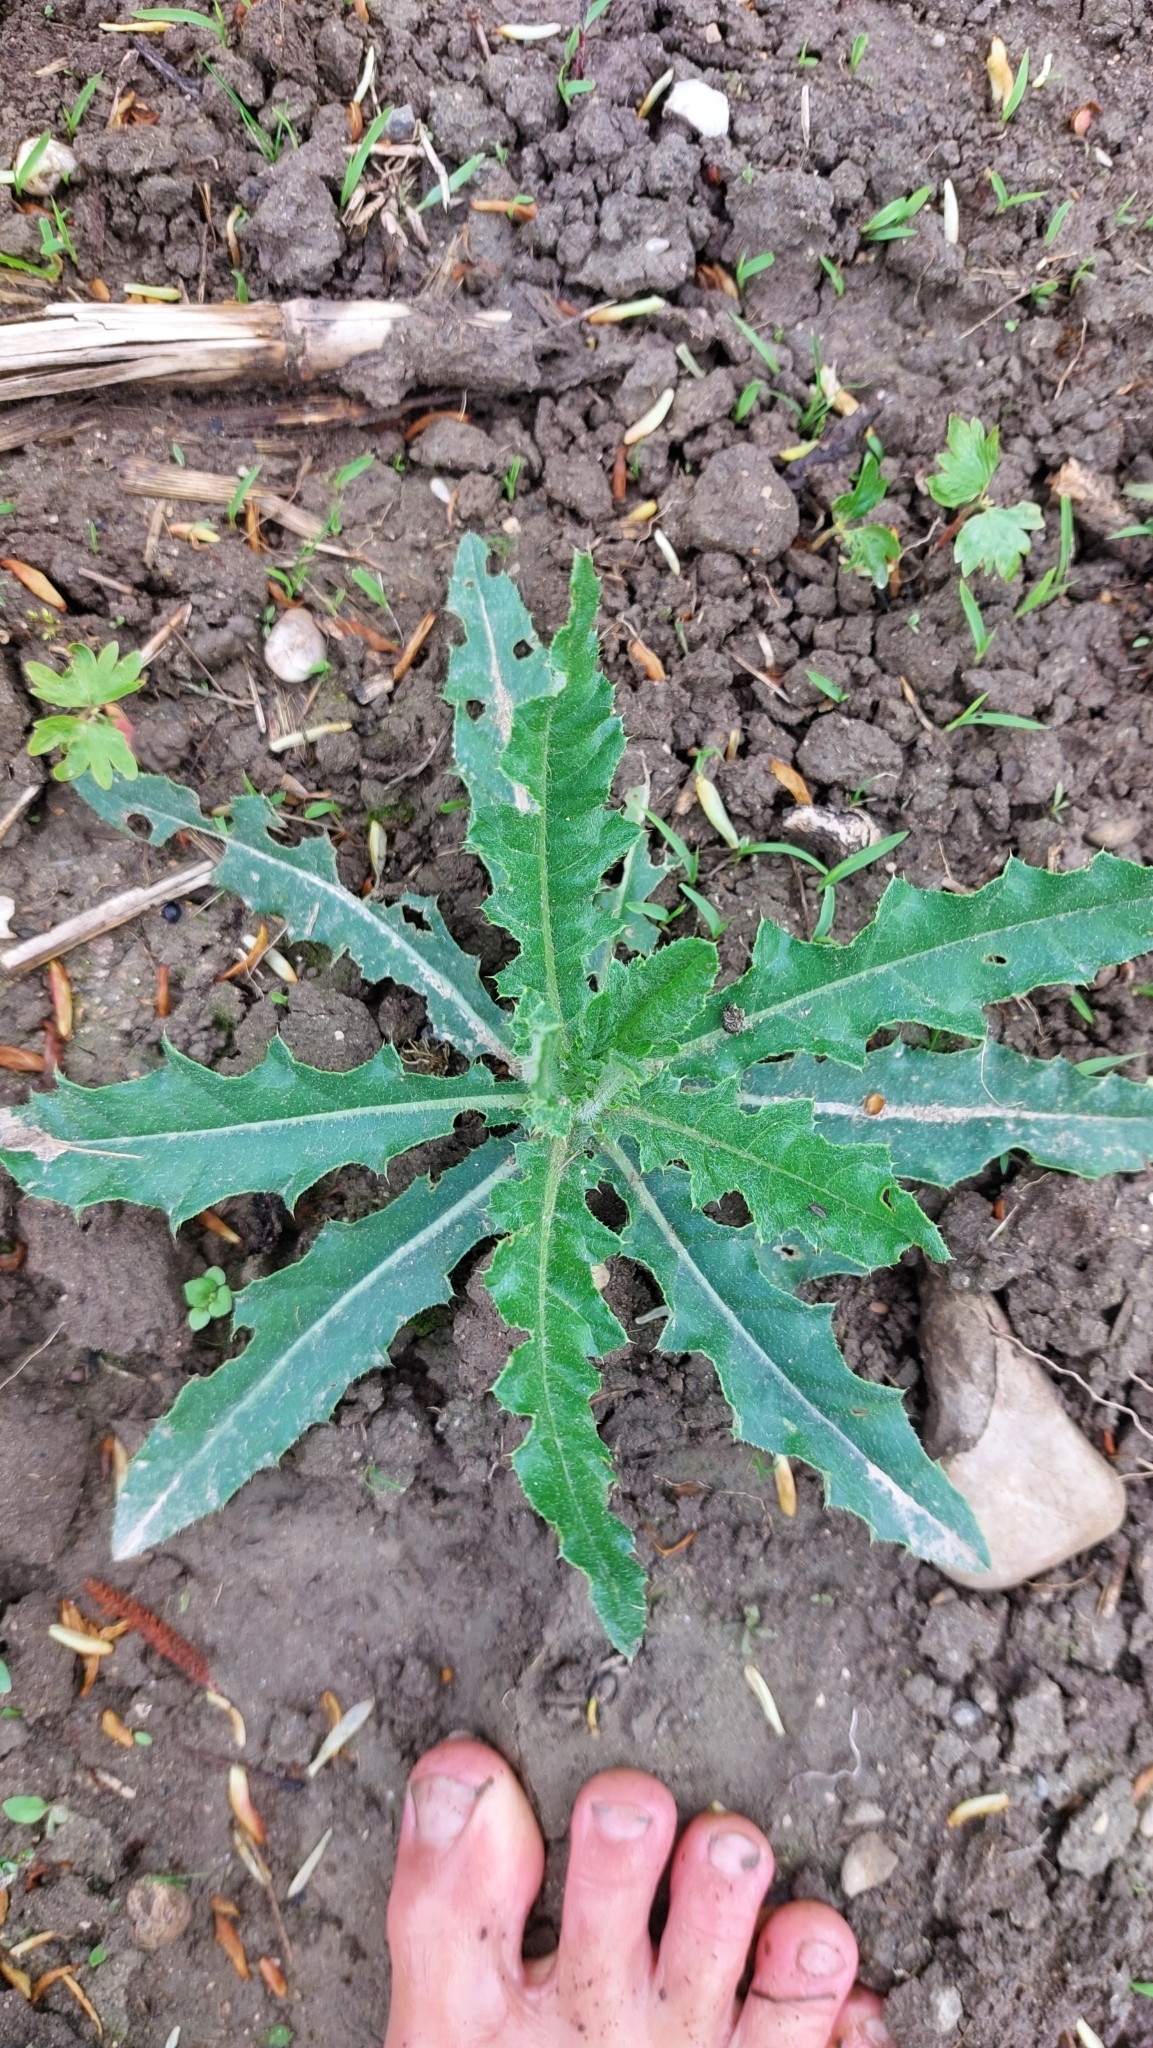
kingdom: Plantae
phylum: Tracheophyta
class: Magnoliopsida
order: Asterales
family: Asteraceae
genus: Cirsium
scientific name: Cirsium arvense
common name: Creeping thistle
